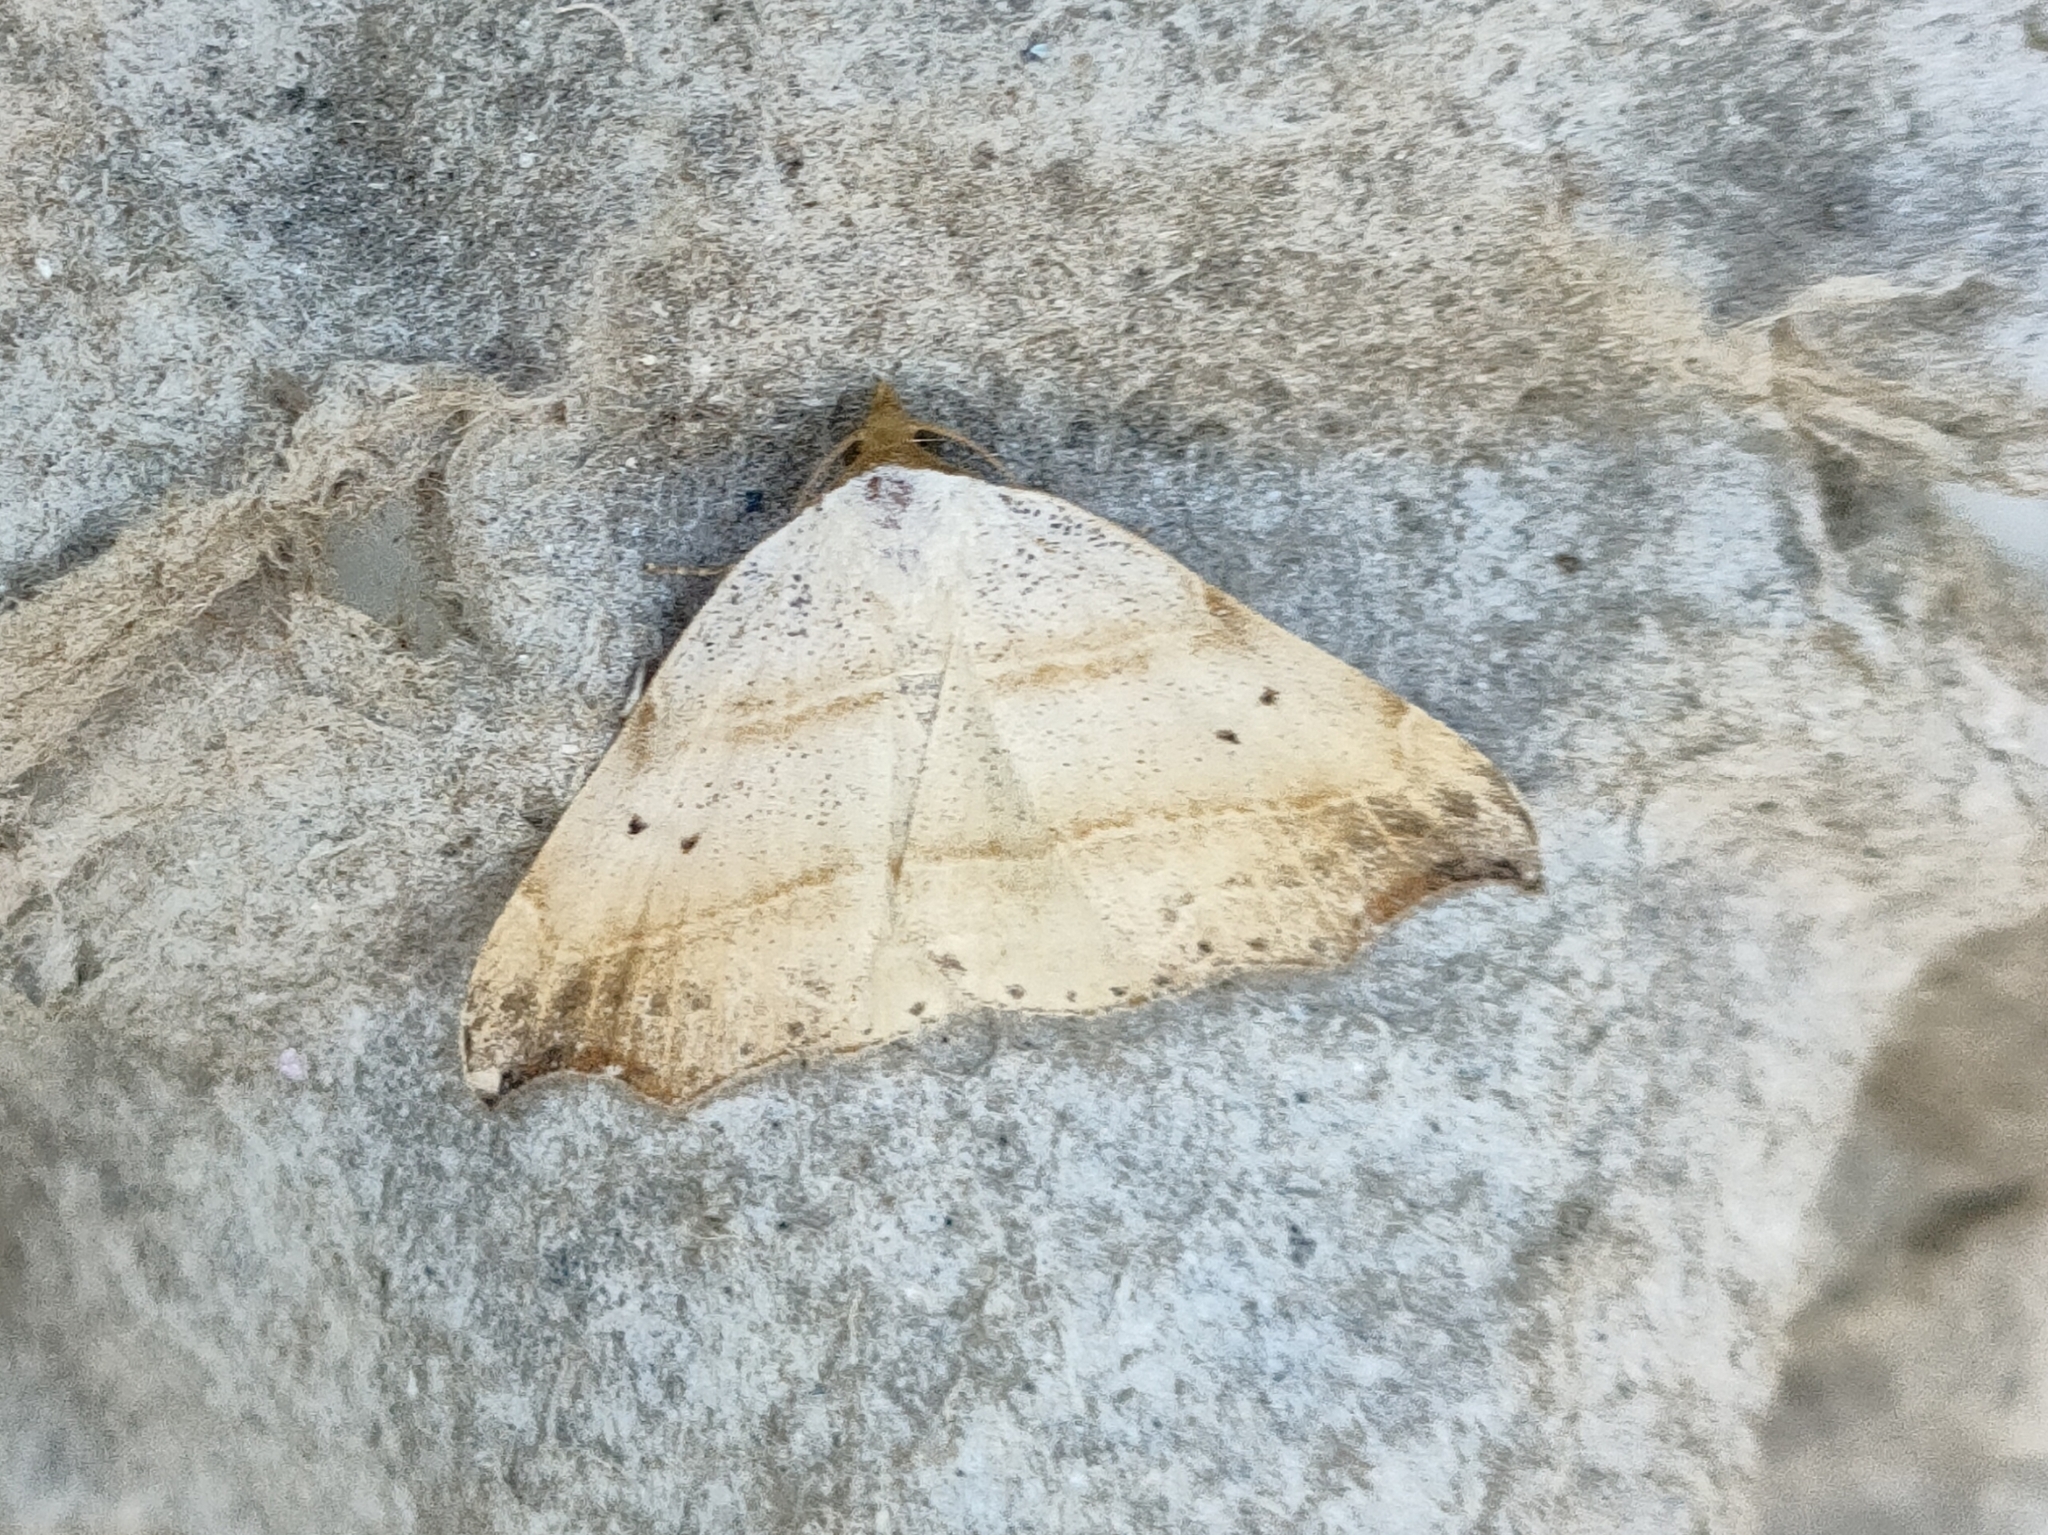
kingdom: Animalia
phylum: Arthropoda
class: Insecta
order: Lepidoptera
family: Erebidae
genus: Laspeyria
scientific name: Laspeyria flexula
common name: Beautiful hook-tip
